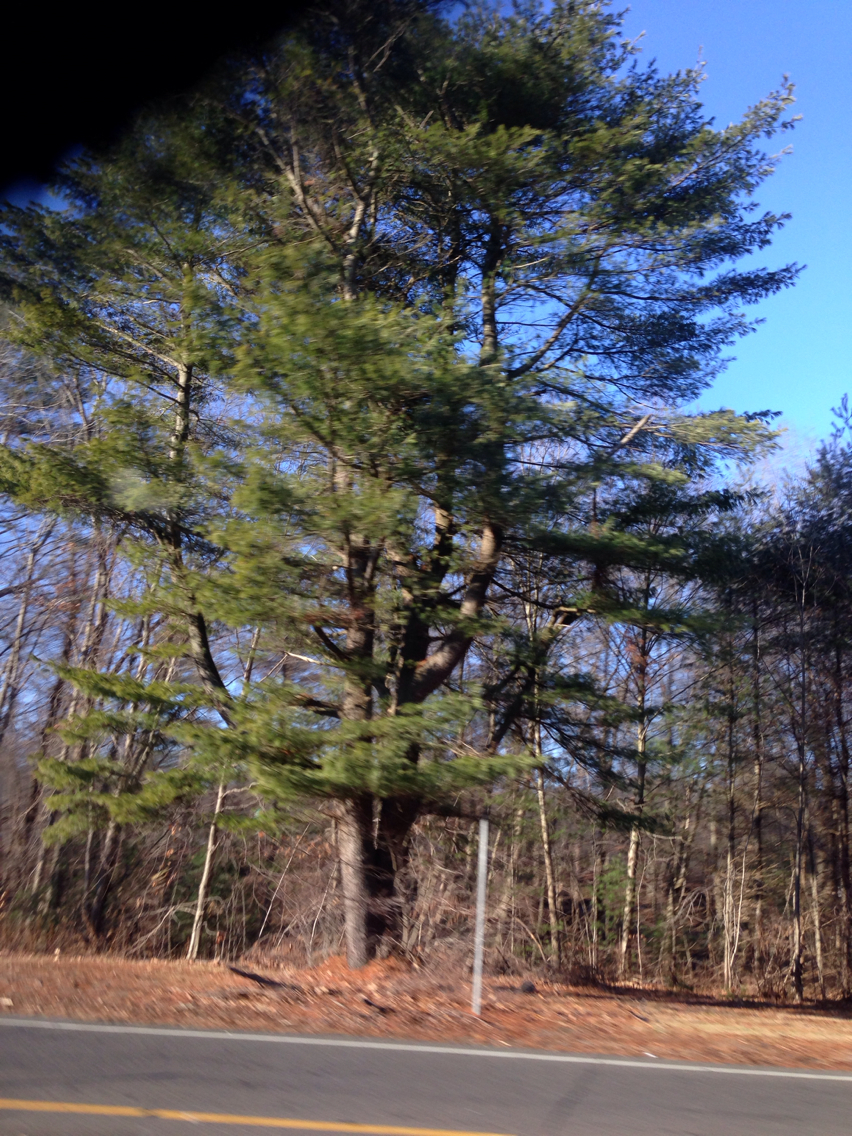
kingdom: Plantae
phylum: Tracheophyta
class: Pinopsida
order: Pinales
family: Pinaceae
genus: Pinus
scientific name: Pinus strobus
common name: Weymouth pine
